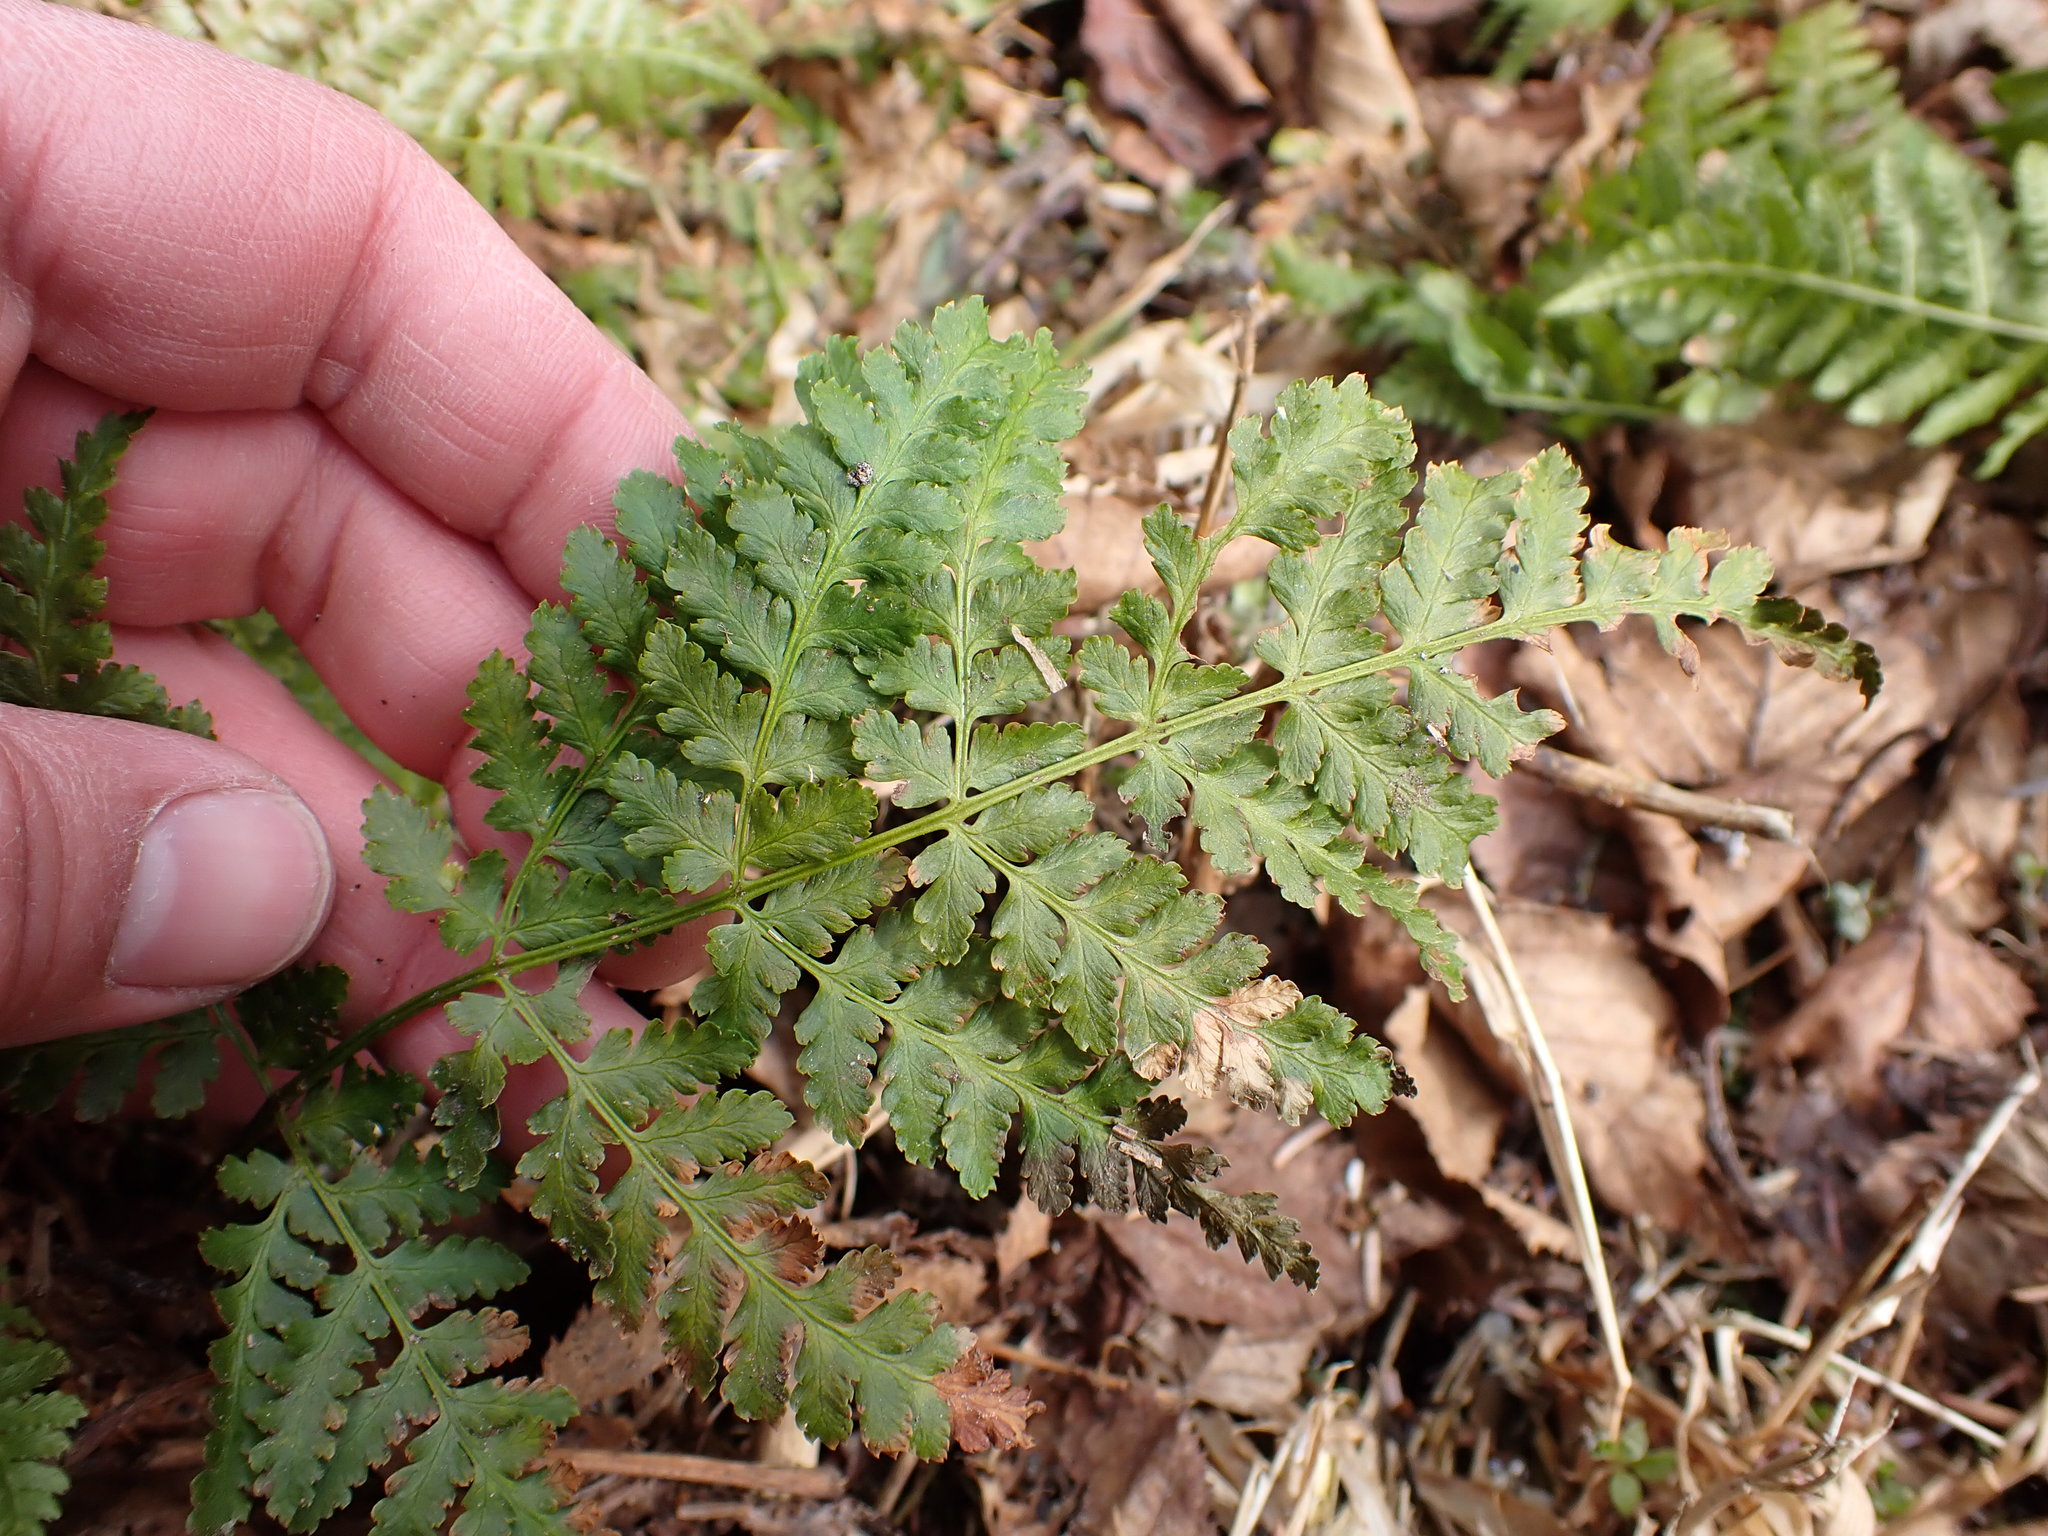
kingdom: Plantae
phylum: Tracheophyta
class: Polypodiopsida
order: Polypodiales
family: Dryopteridaceae
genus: Dryopteris
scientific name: Dryopteris expansa
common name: Northern buckler fern
